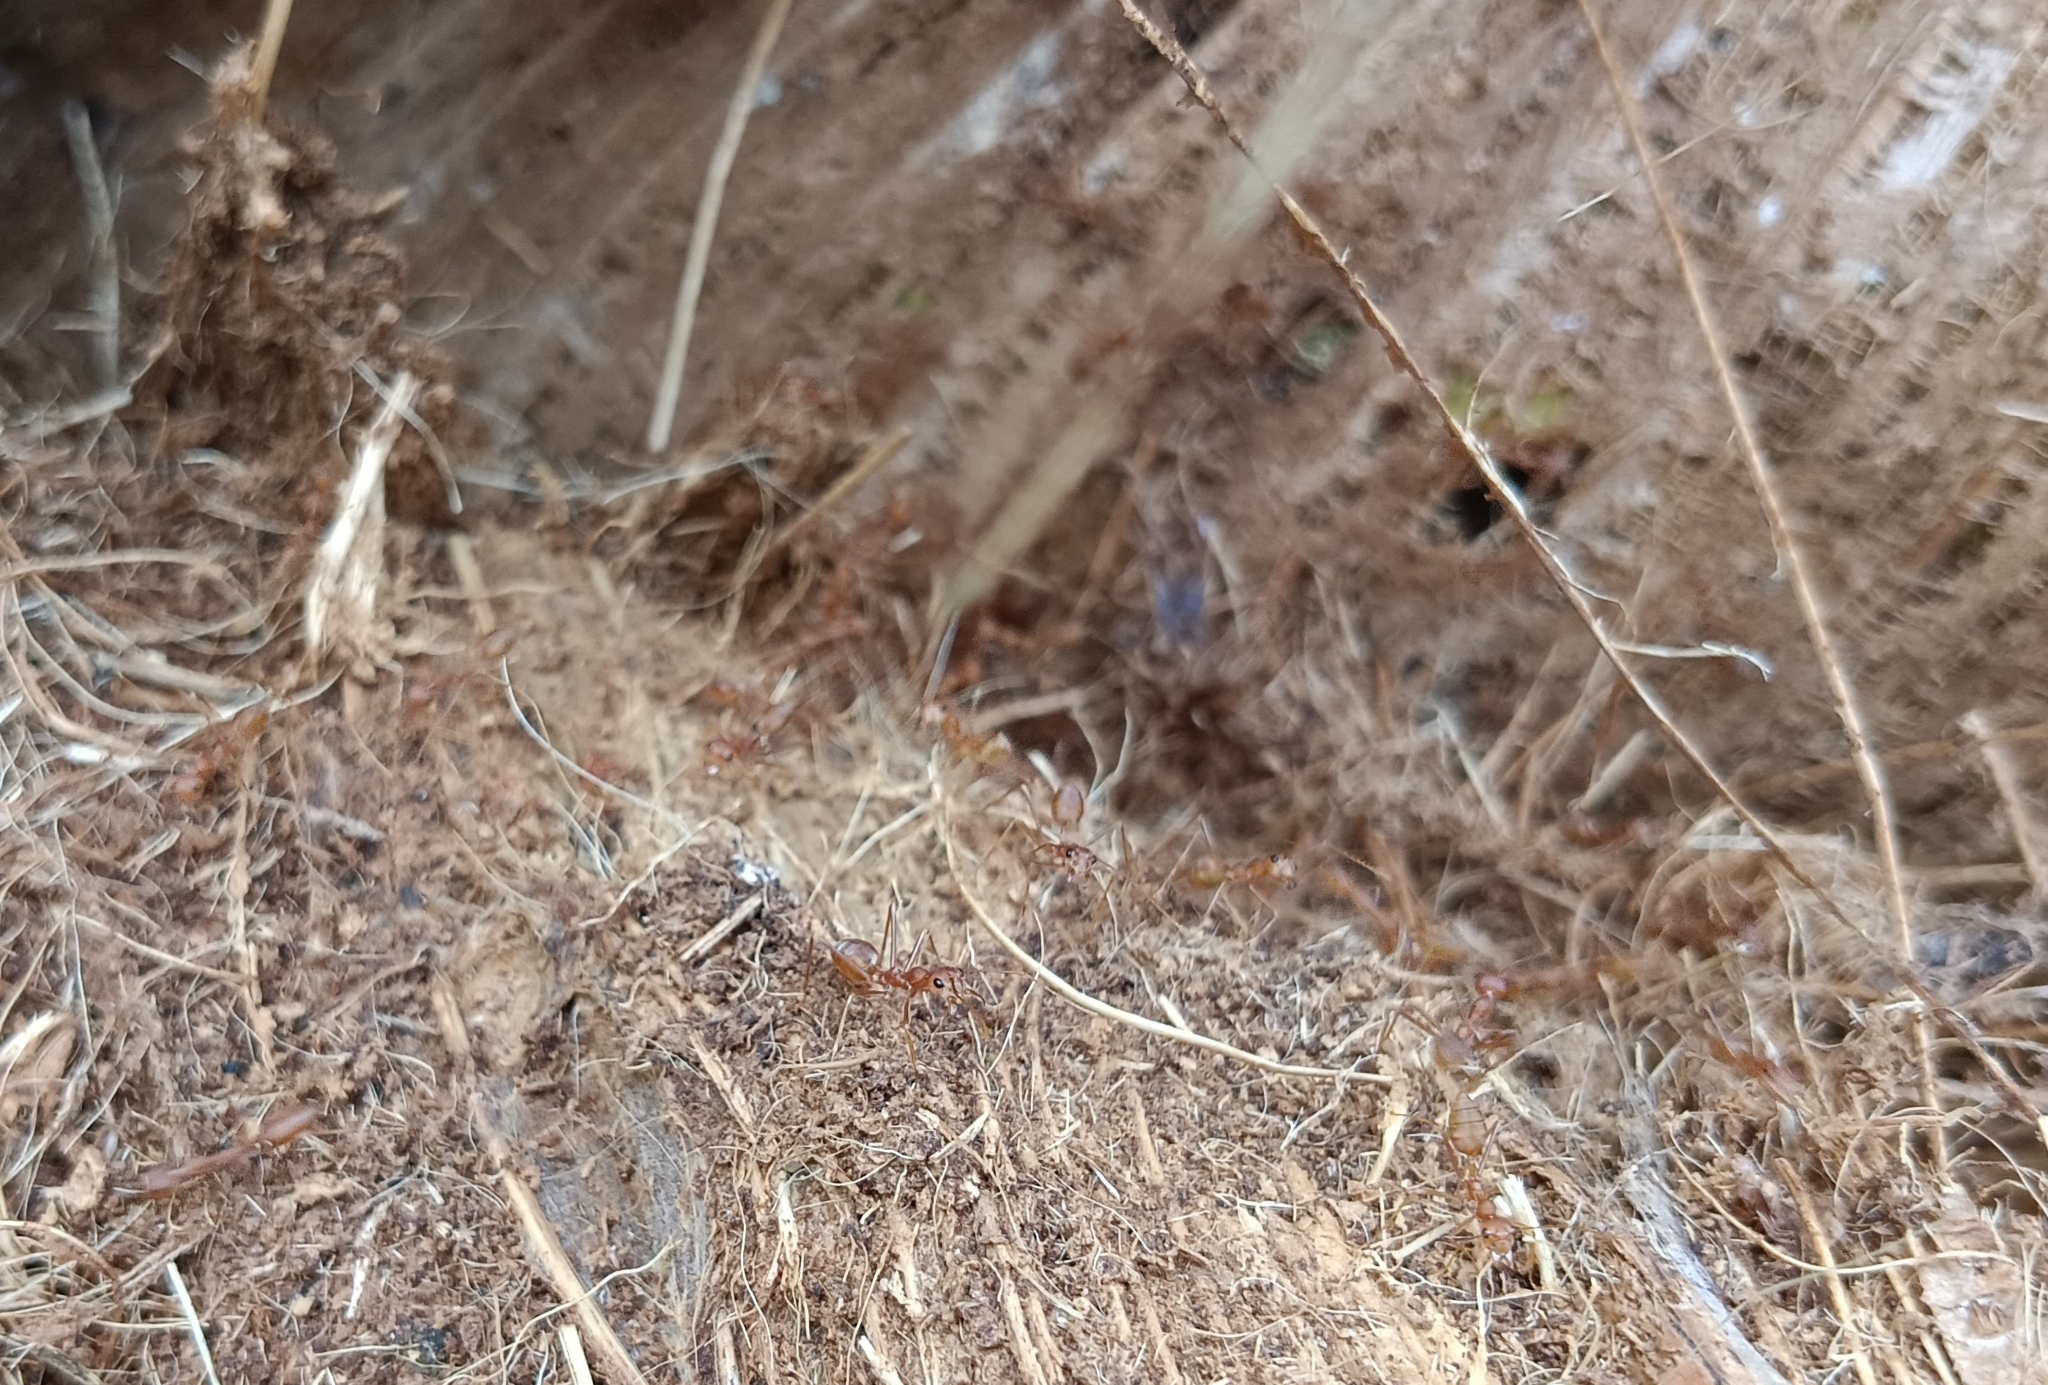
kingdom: Animalia
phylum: Arthropoda
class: Insecta
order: Hymenoptera
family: Formicidae
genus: Oecophylla
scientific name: Oecophylla smaragdina
